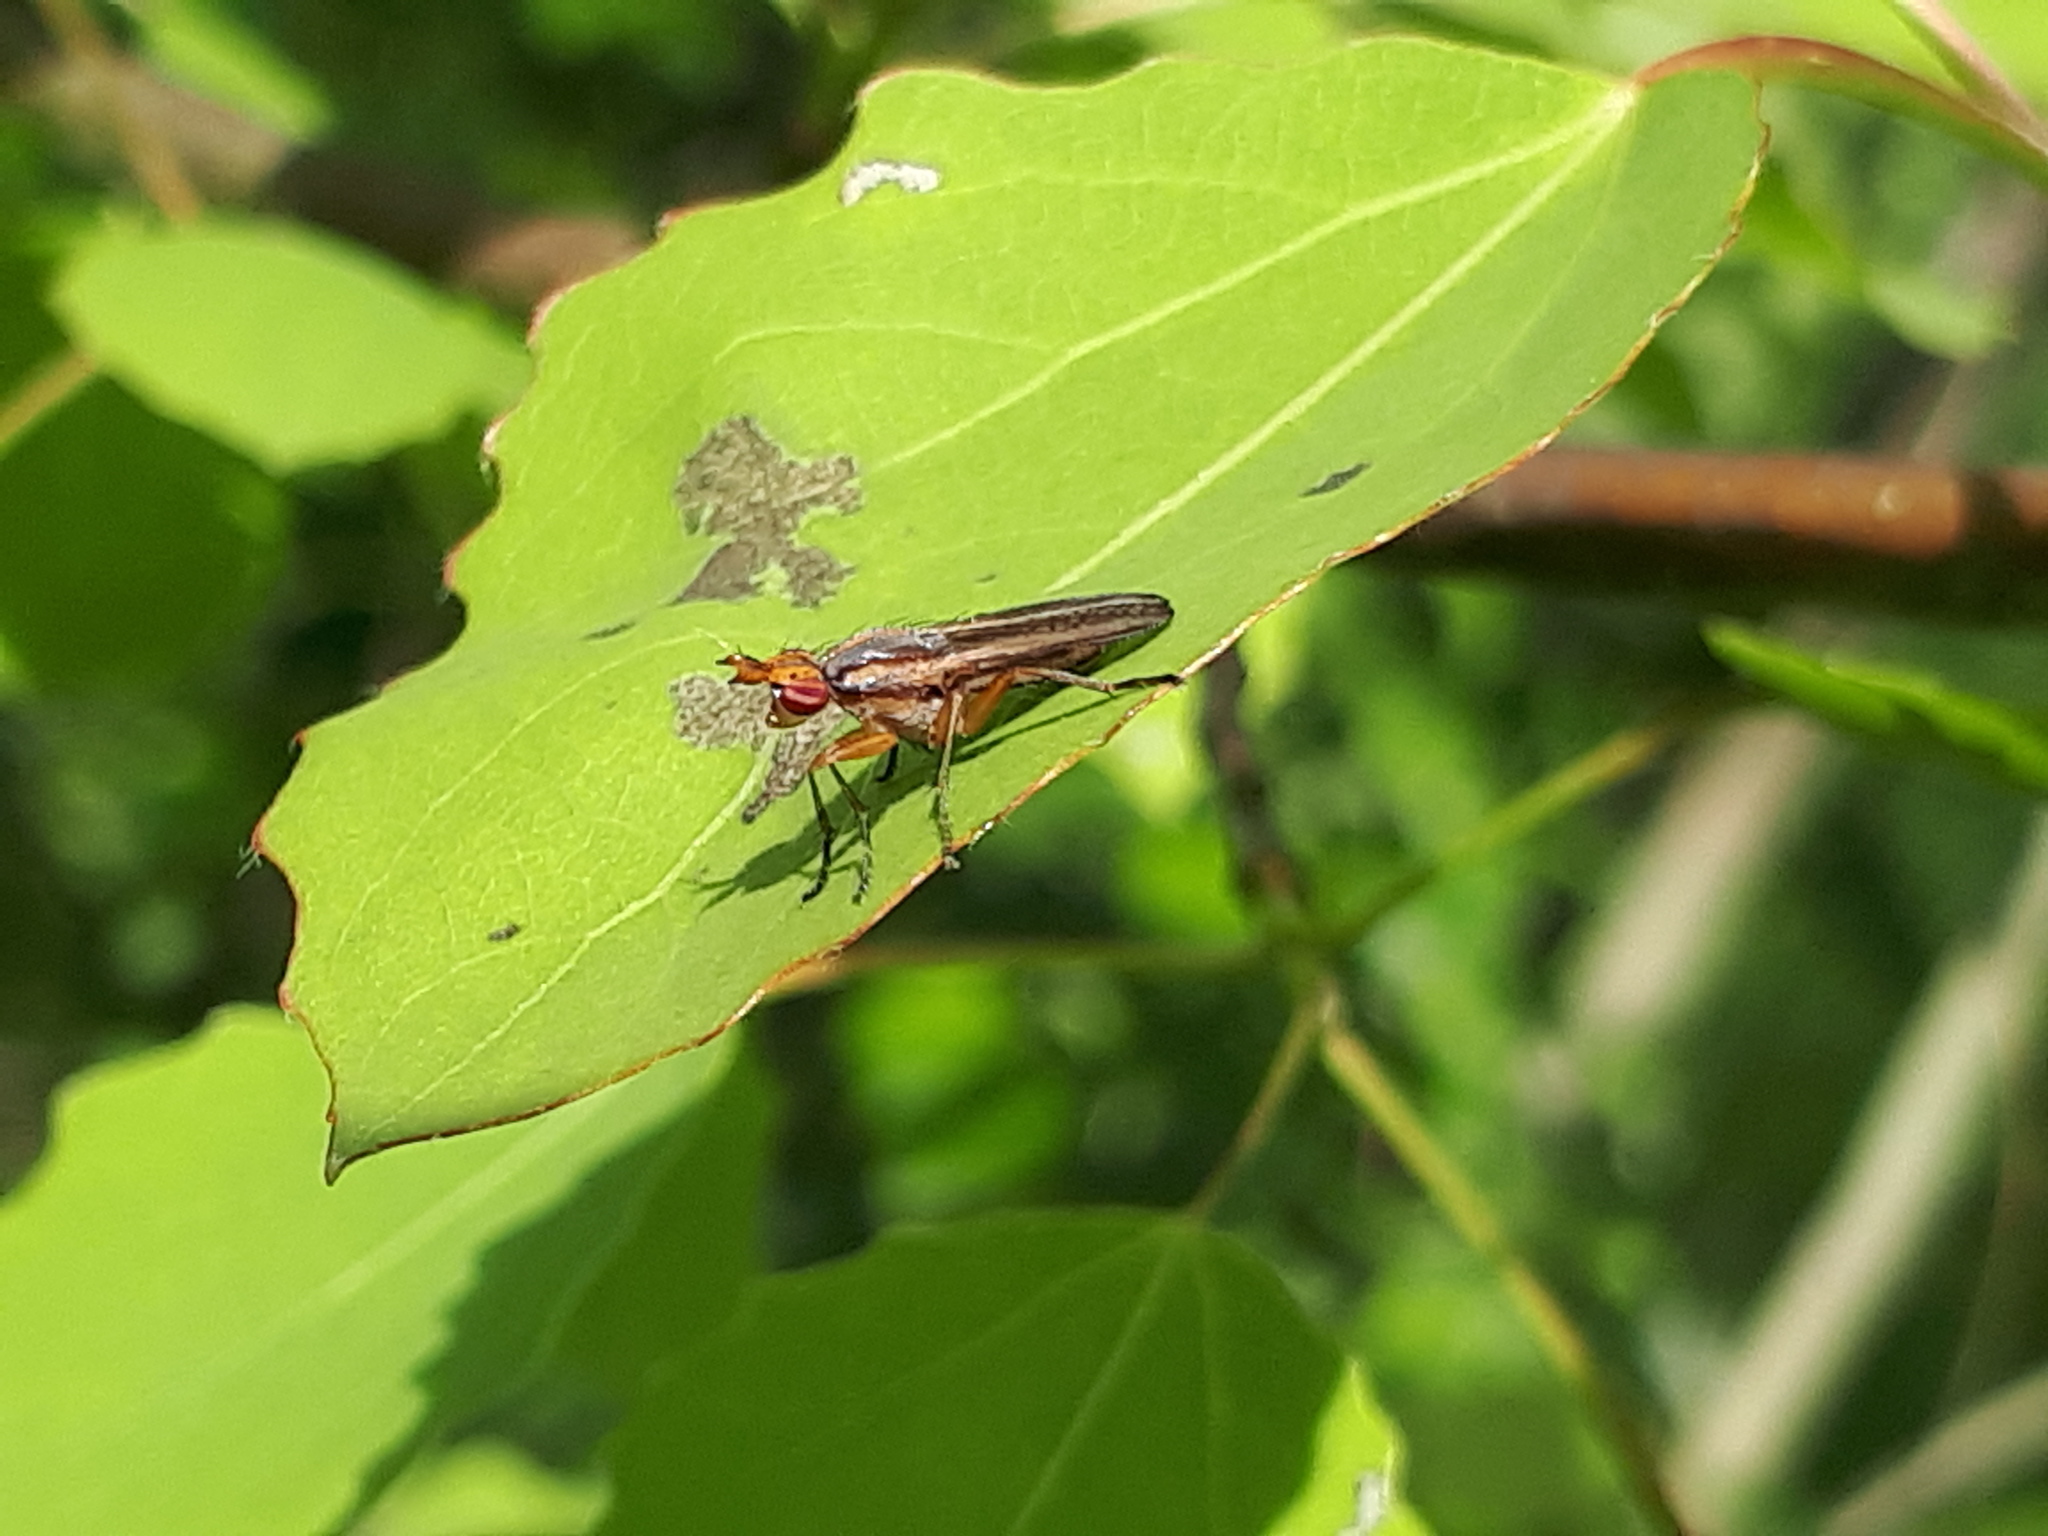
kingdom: Animalia
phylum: Arthropoda
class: Insecta
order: Diptera
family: Sciomyzidae
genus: Limnia
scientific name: Limnia unguicornis
